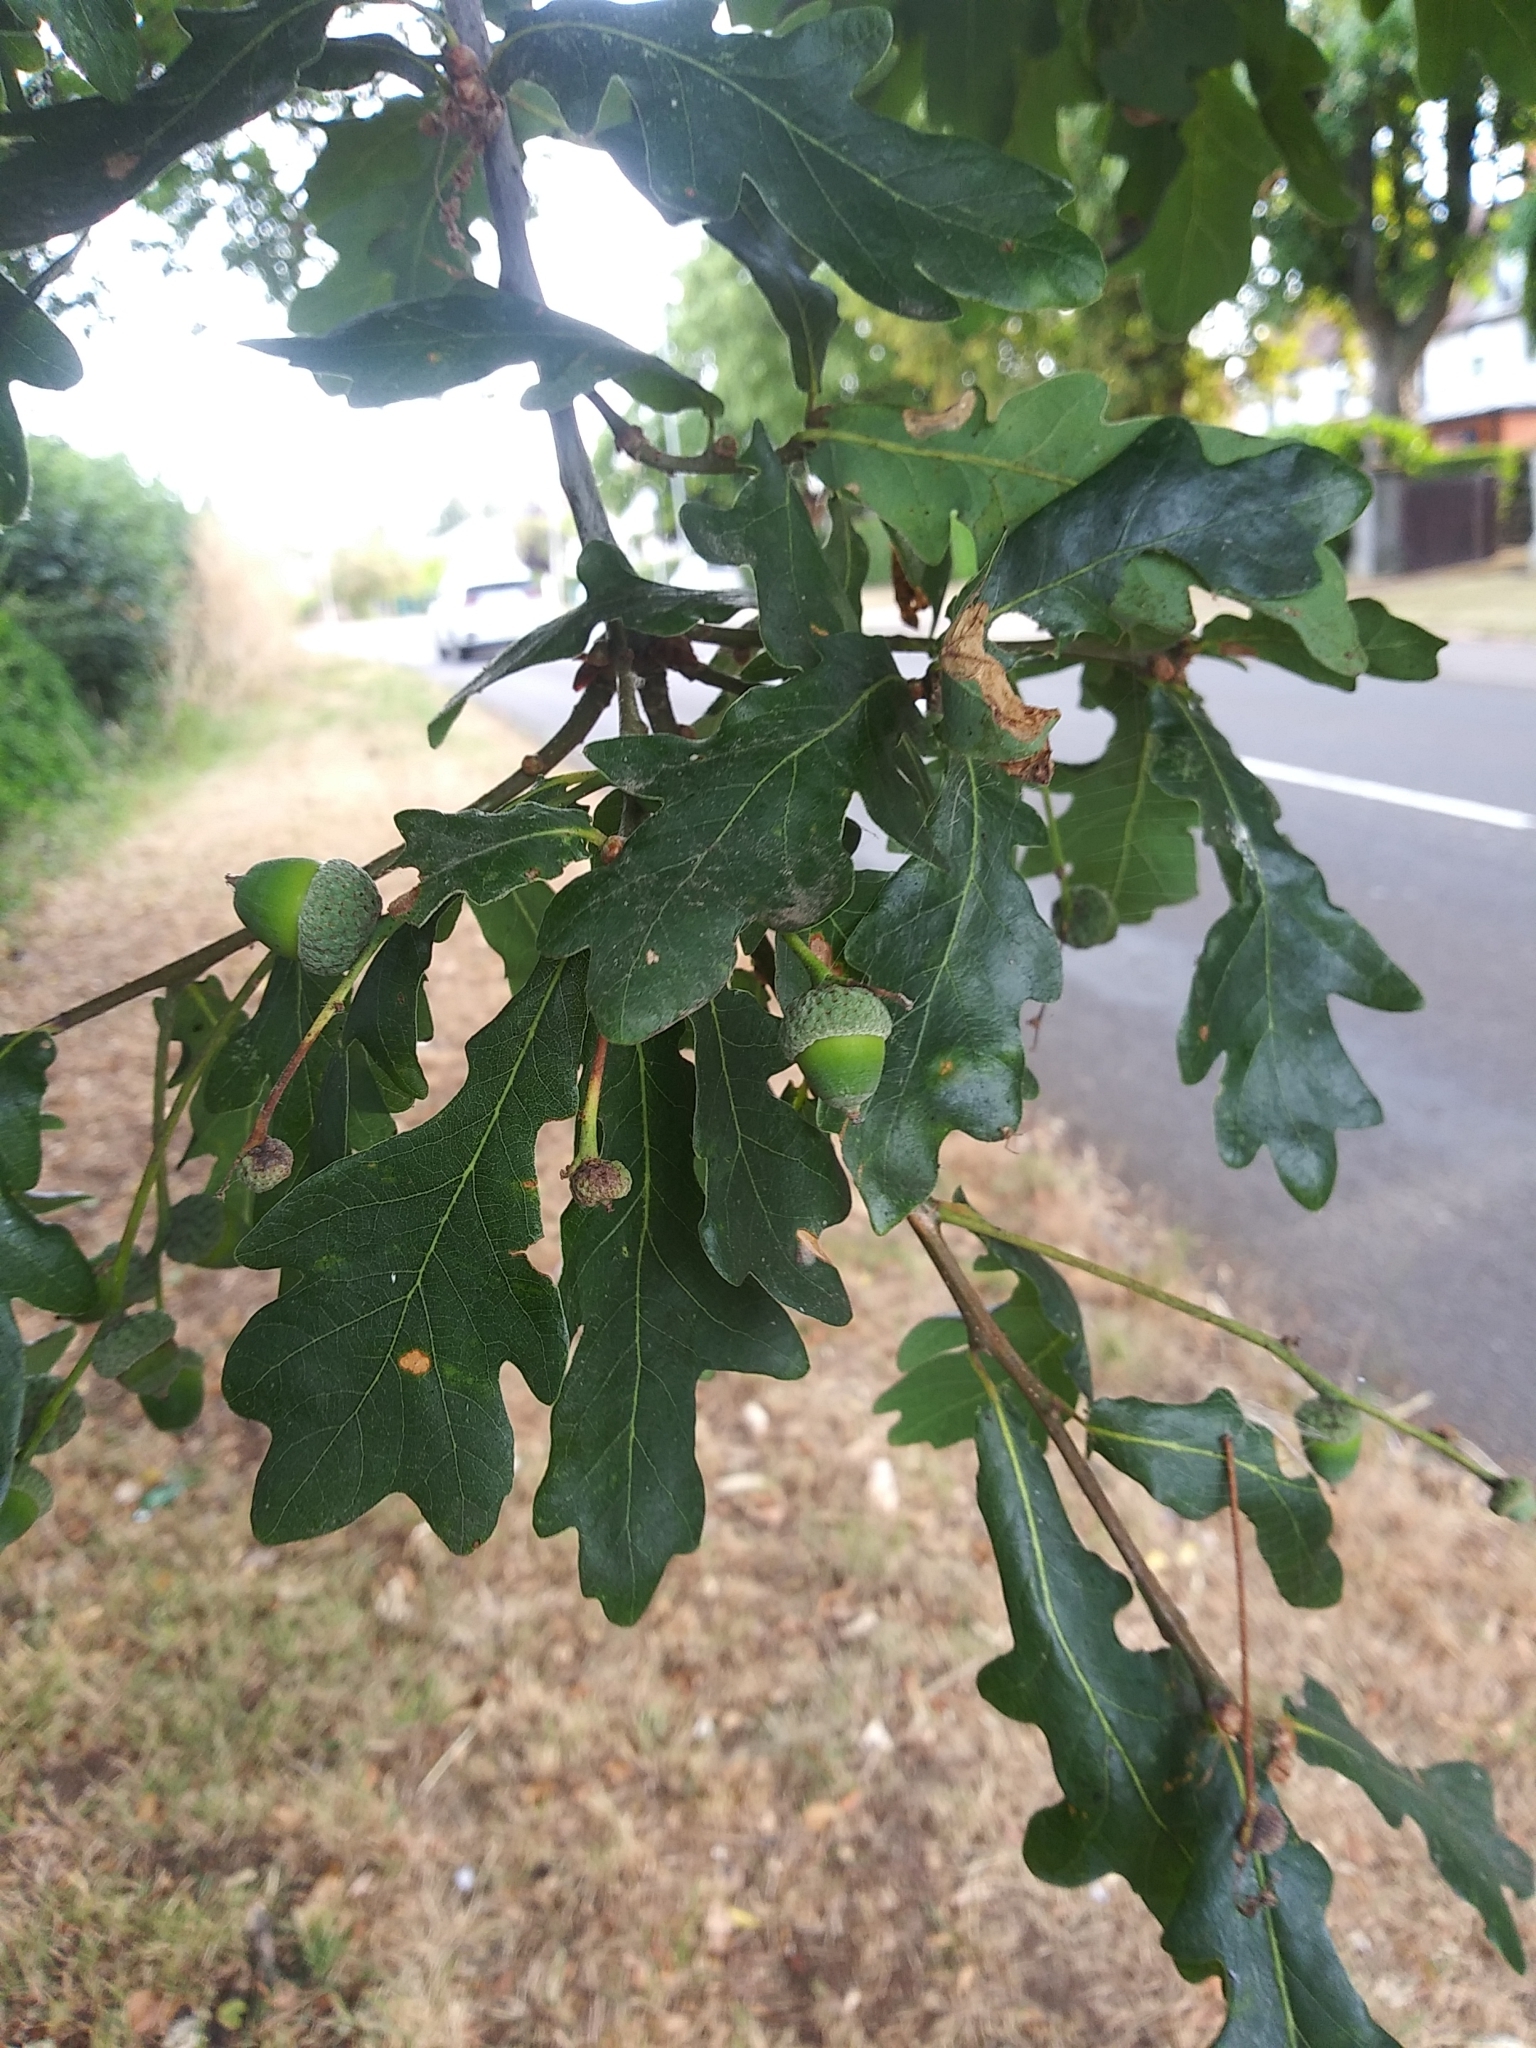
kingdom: Plantae
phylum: Tracheophyta
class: Magnoliopsida
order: Fagales
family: Fagaceae
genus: Quercus
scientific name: Quercus robur
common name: Pedunculate oak
